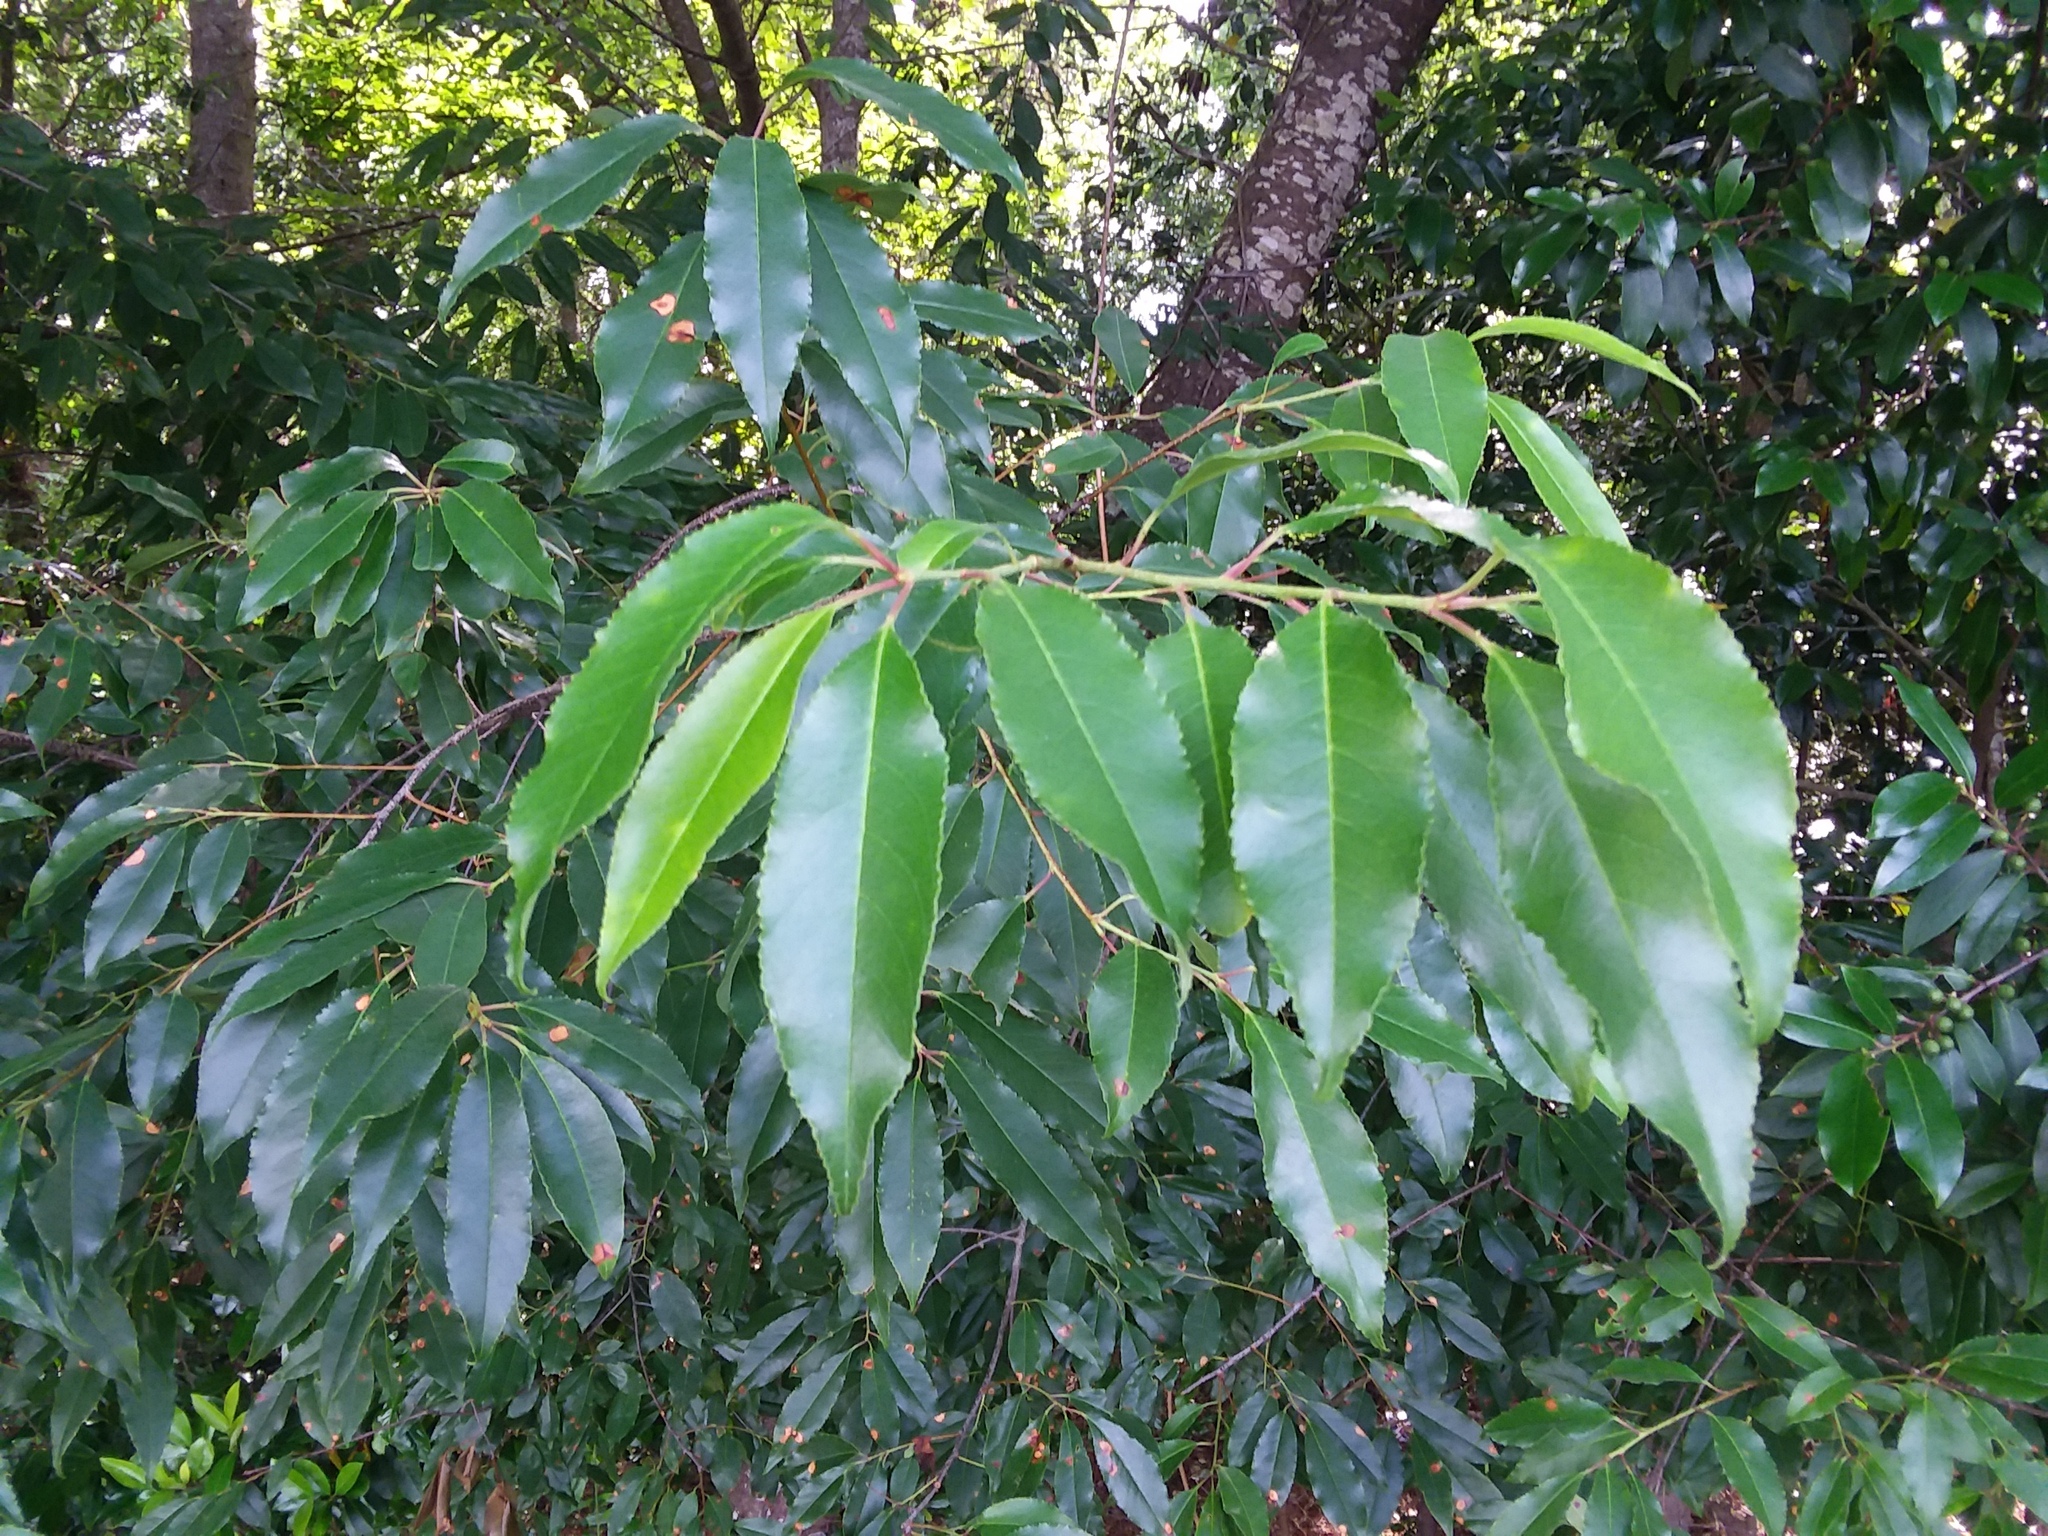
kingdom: Plantae
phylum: Tracheophyta
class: Magnoliopsida
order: Rosales
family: Rosaceae
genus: Prunus
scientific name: Prunus serotina
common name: Black cherry
